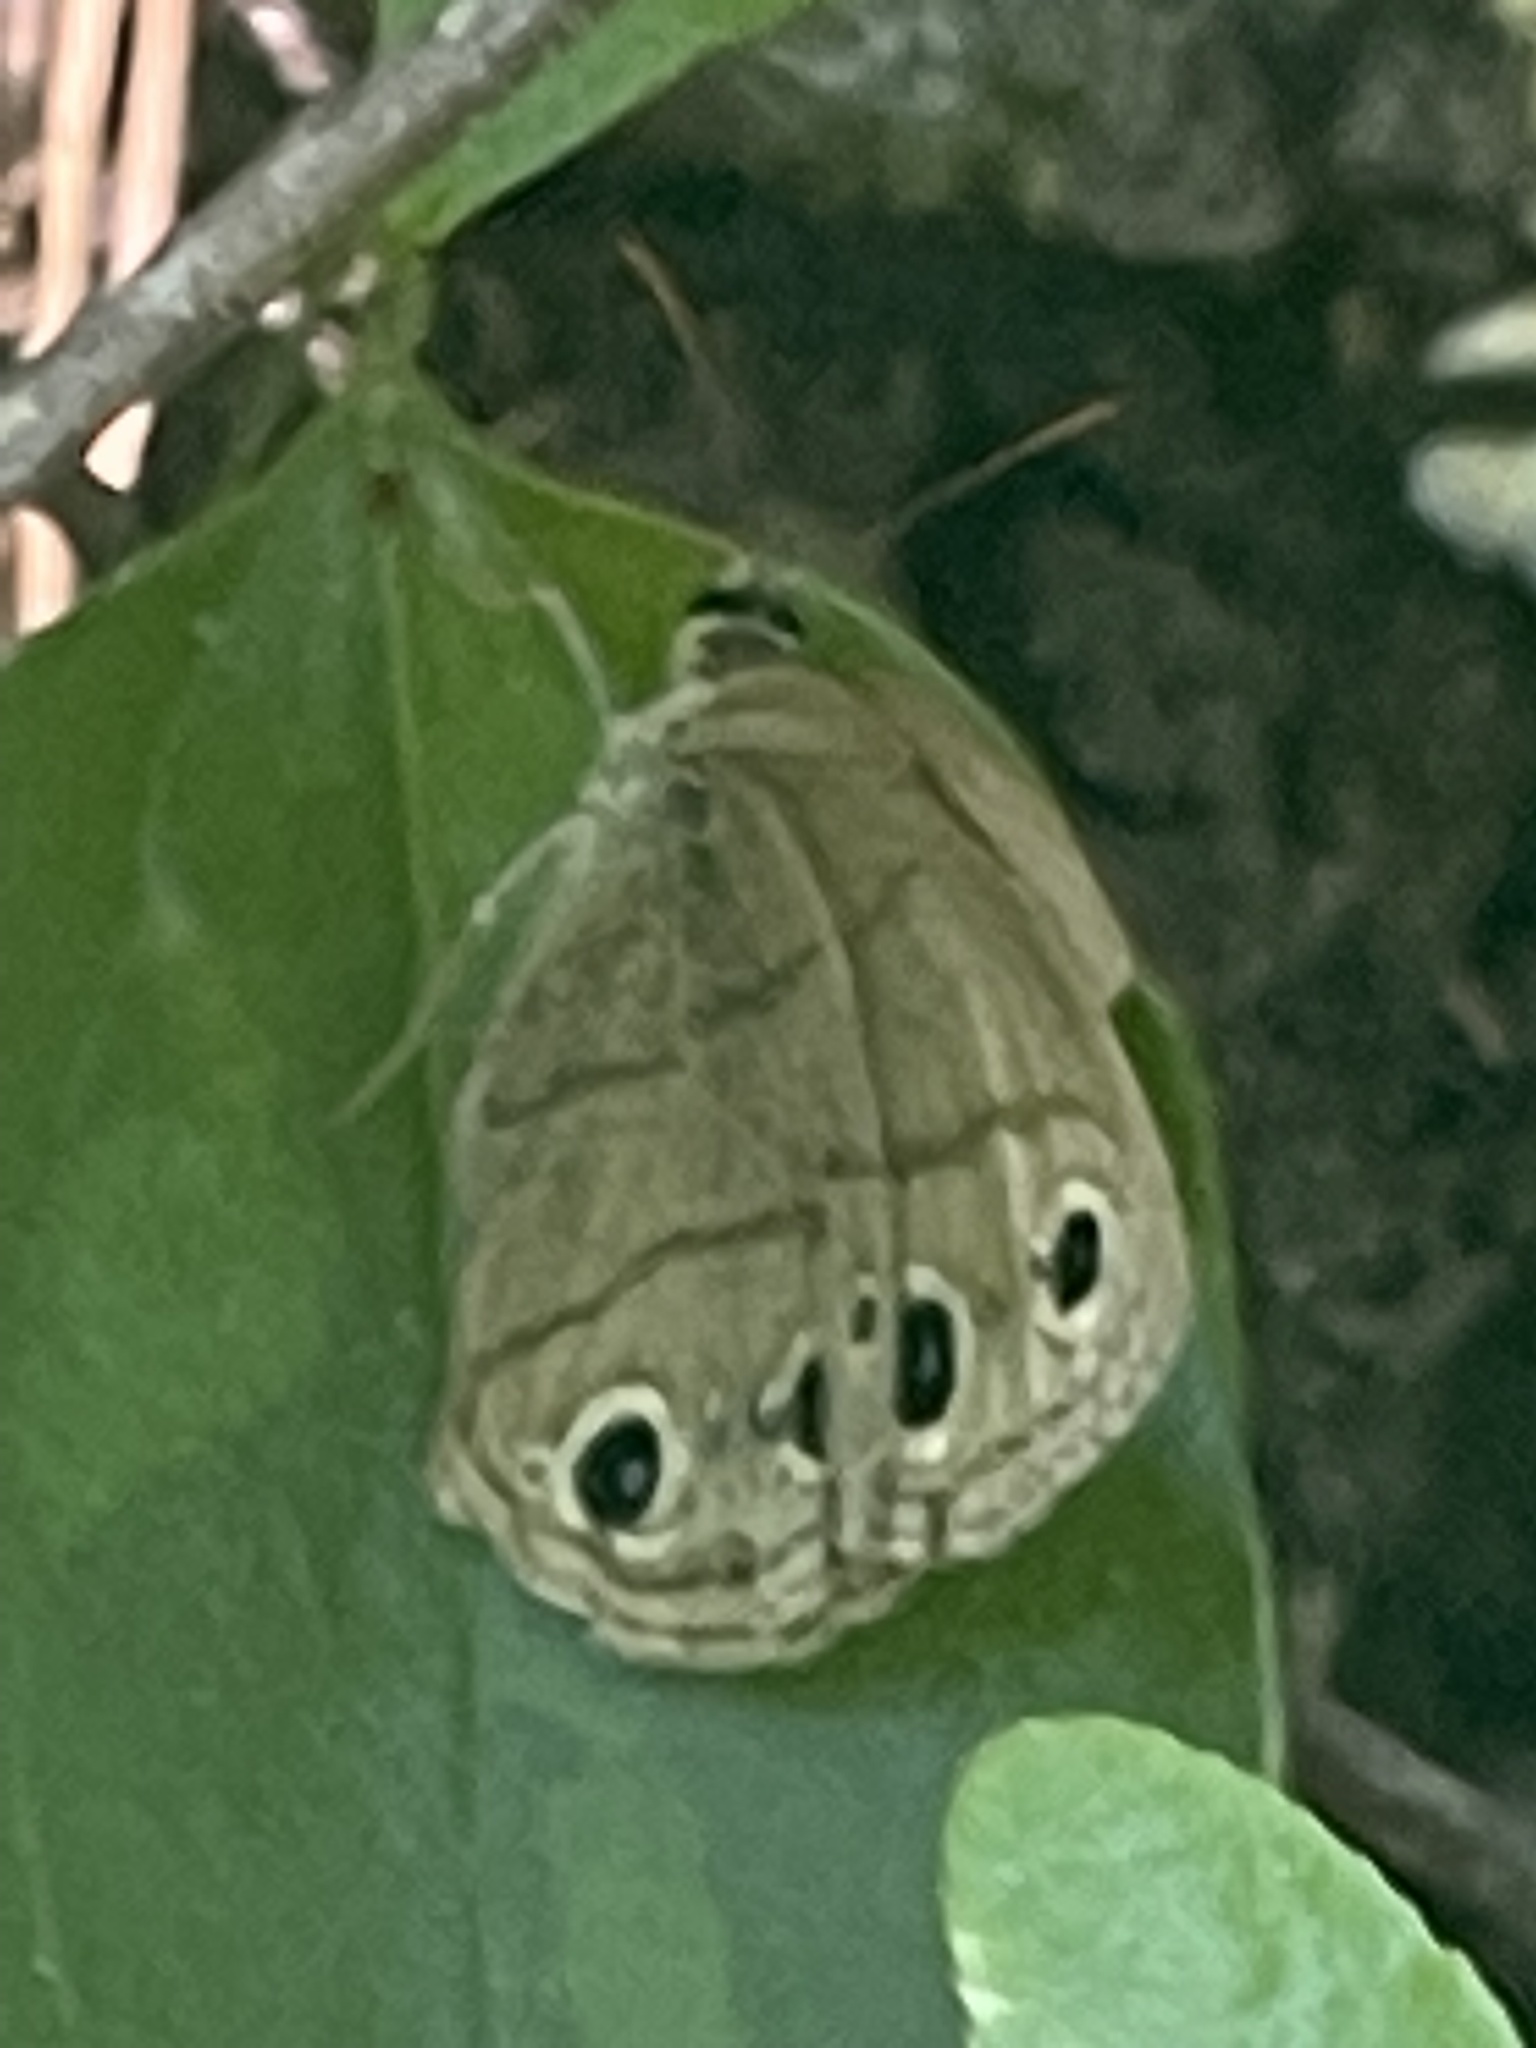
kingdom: Animalia
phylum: Arthropoda
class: Insecta
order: Lepidoptera
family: Nymphalidae
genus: Euptychia
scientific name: Euptychia cymela
